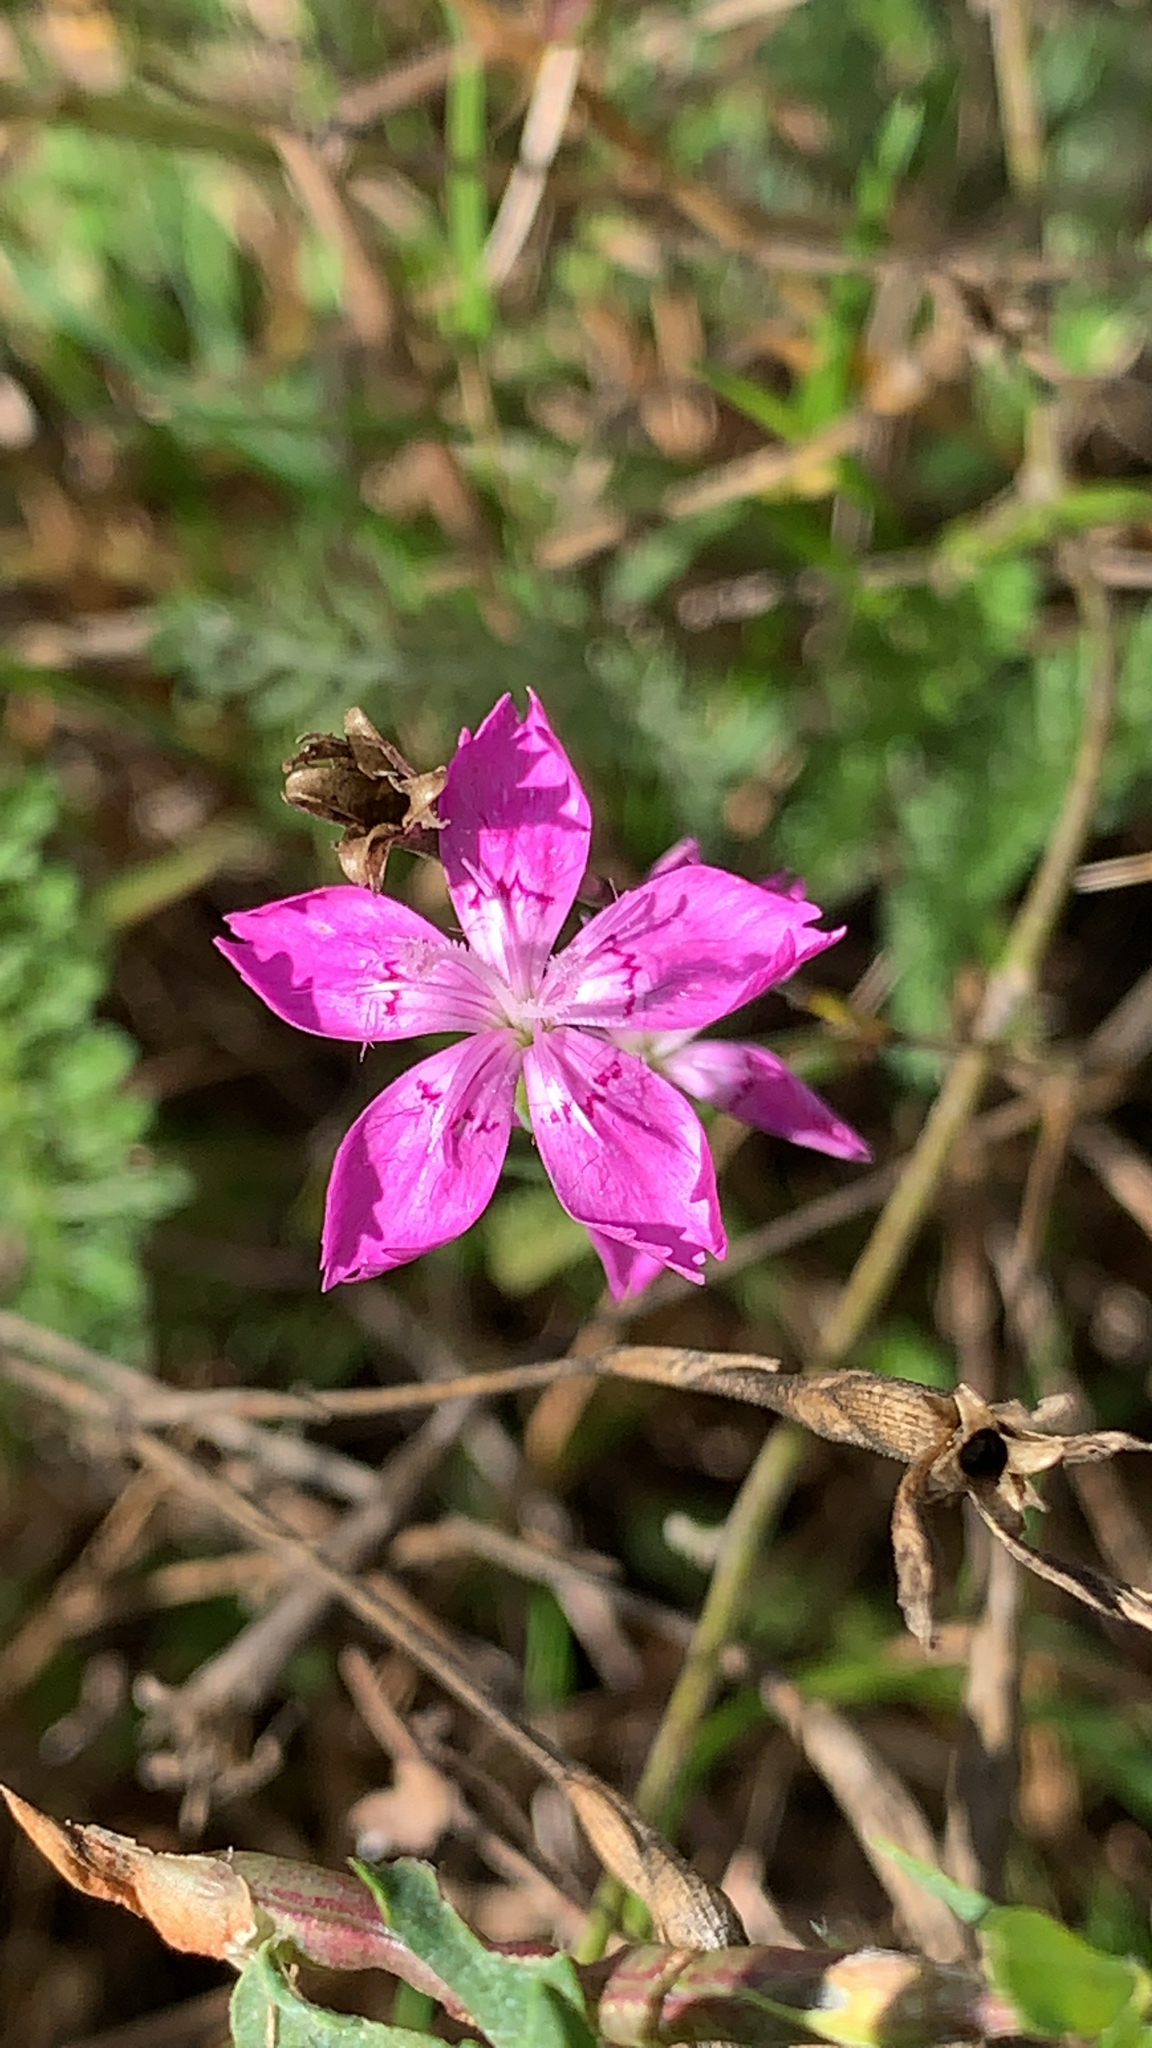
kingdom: Plantae
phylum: Tracheophyta
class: Magnoliopsida
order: Caryophyllales
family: Caryophyllaceae
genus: Dianthus
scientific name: Dianthus deltoides
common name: Maiden pink
